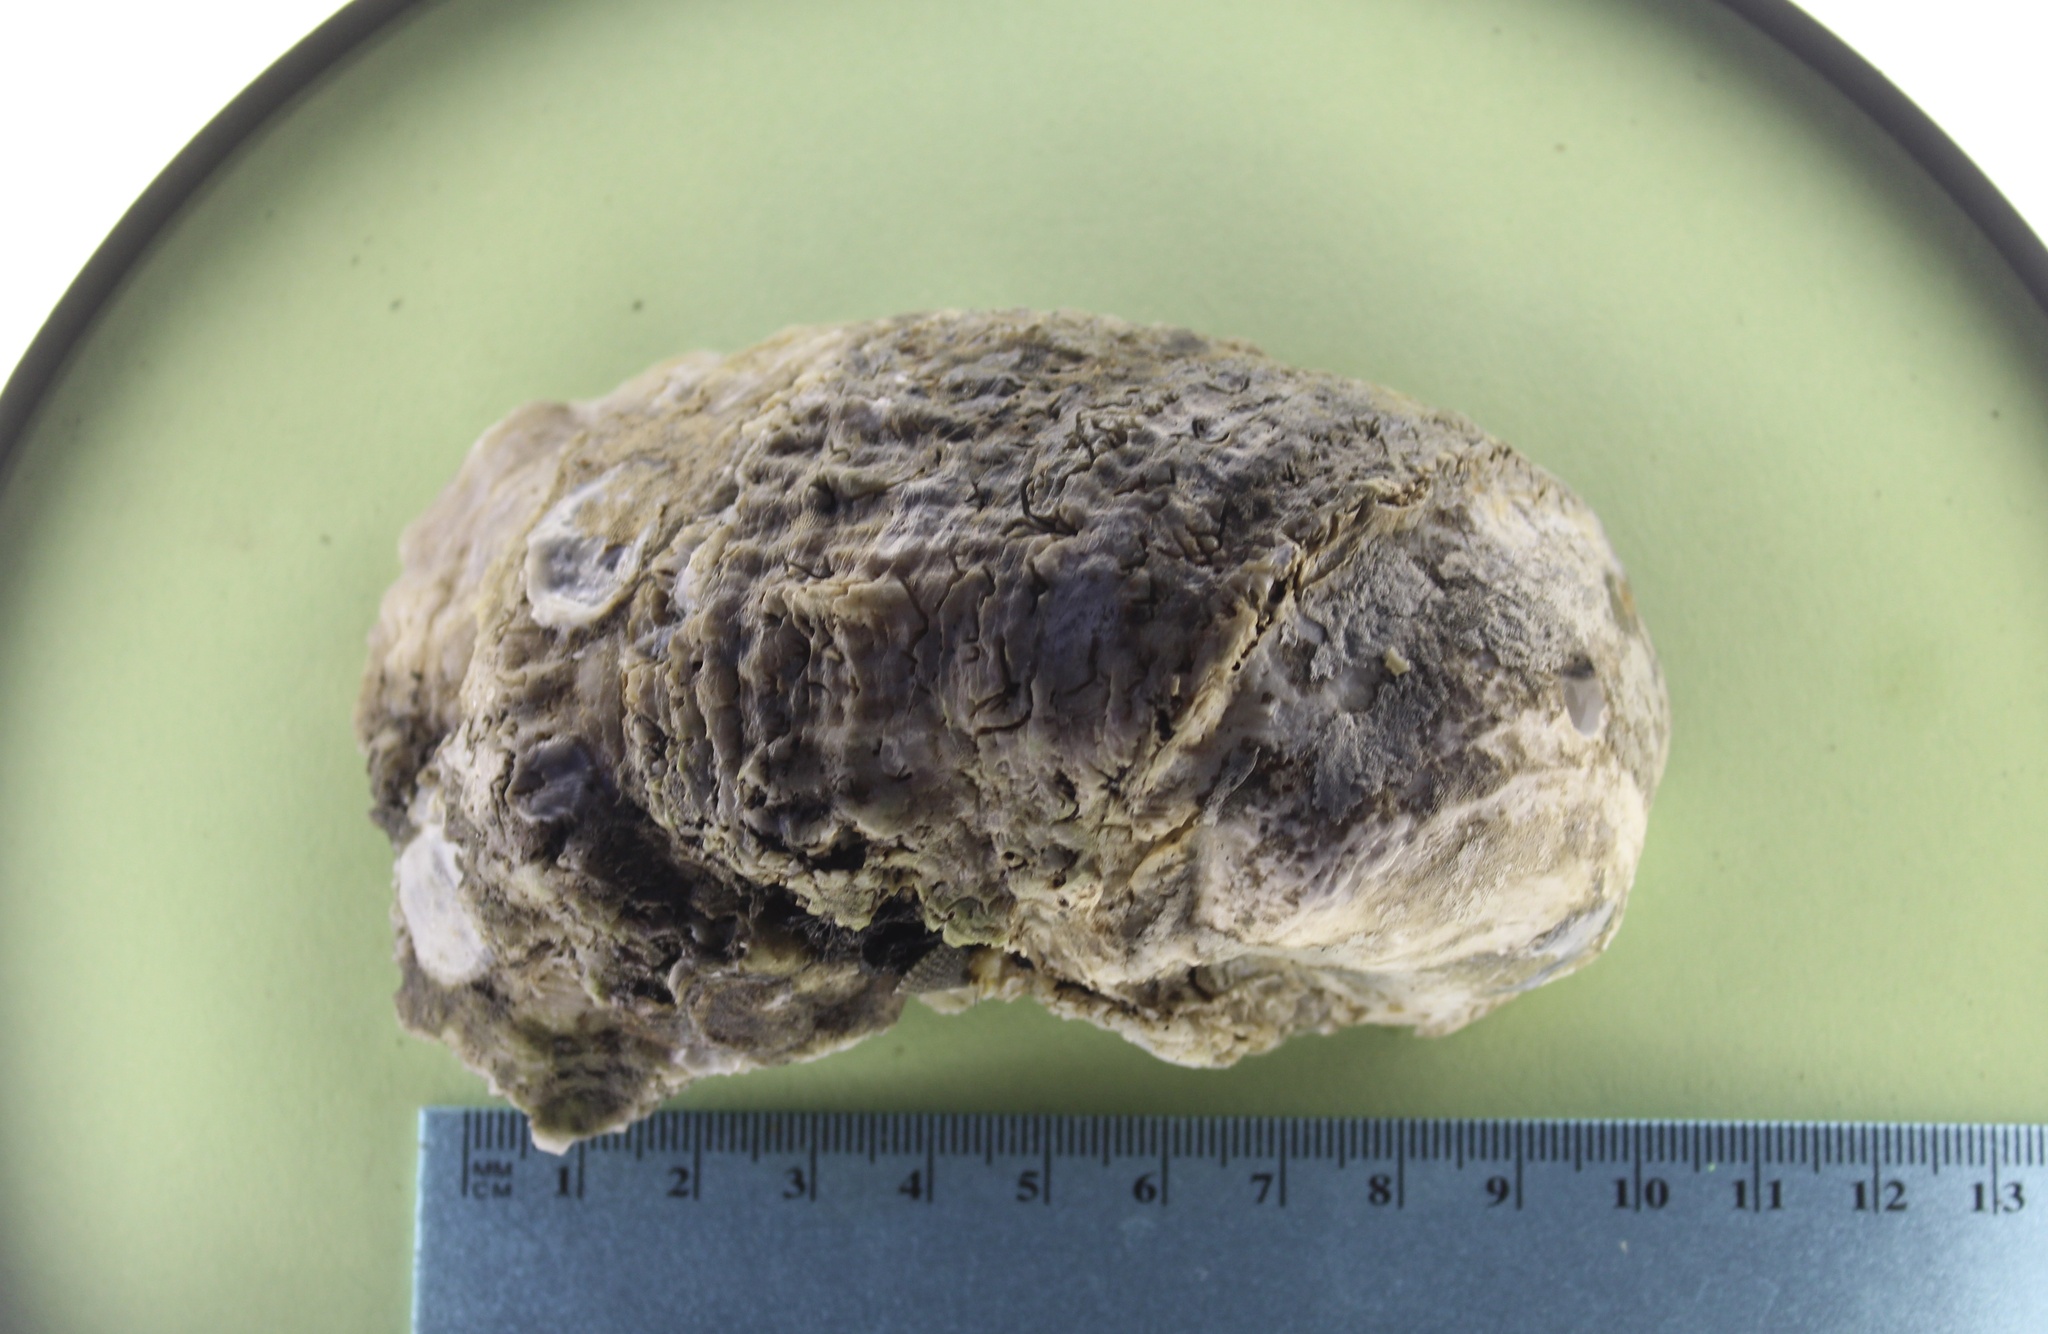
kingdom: Animalia
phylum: Mollusca
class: Bivalvia
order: Ostreida
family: Ostreidae
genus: Magallana
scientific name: Magallana gigas
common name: Pacific oyster
